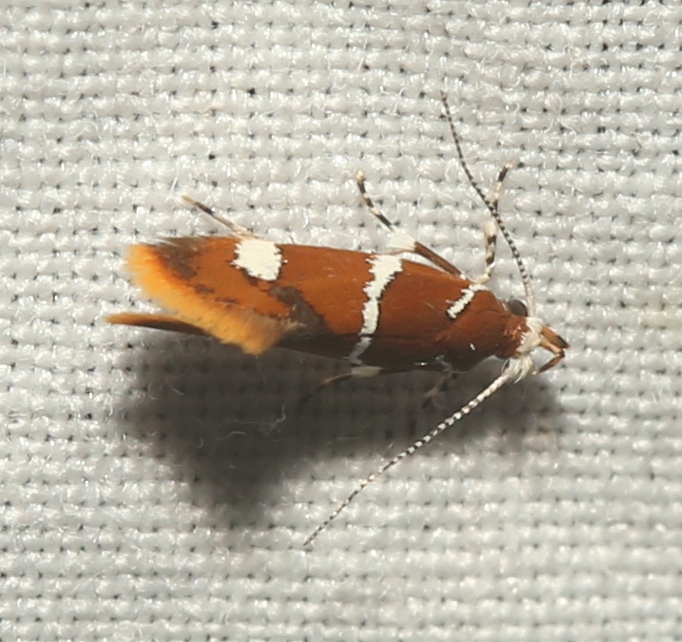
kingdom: Animalia
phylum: Arthropoda
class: Insecta
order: Lepidoptera
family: Oecophoridae
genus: Promalactis
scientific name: Promalactis suzukiella
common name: Moth
